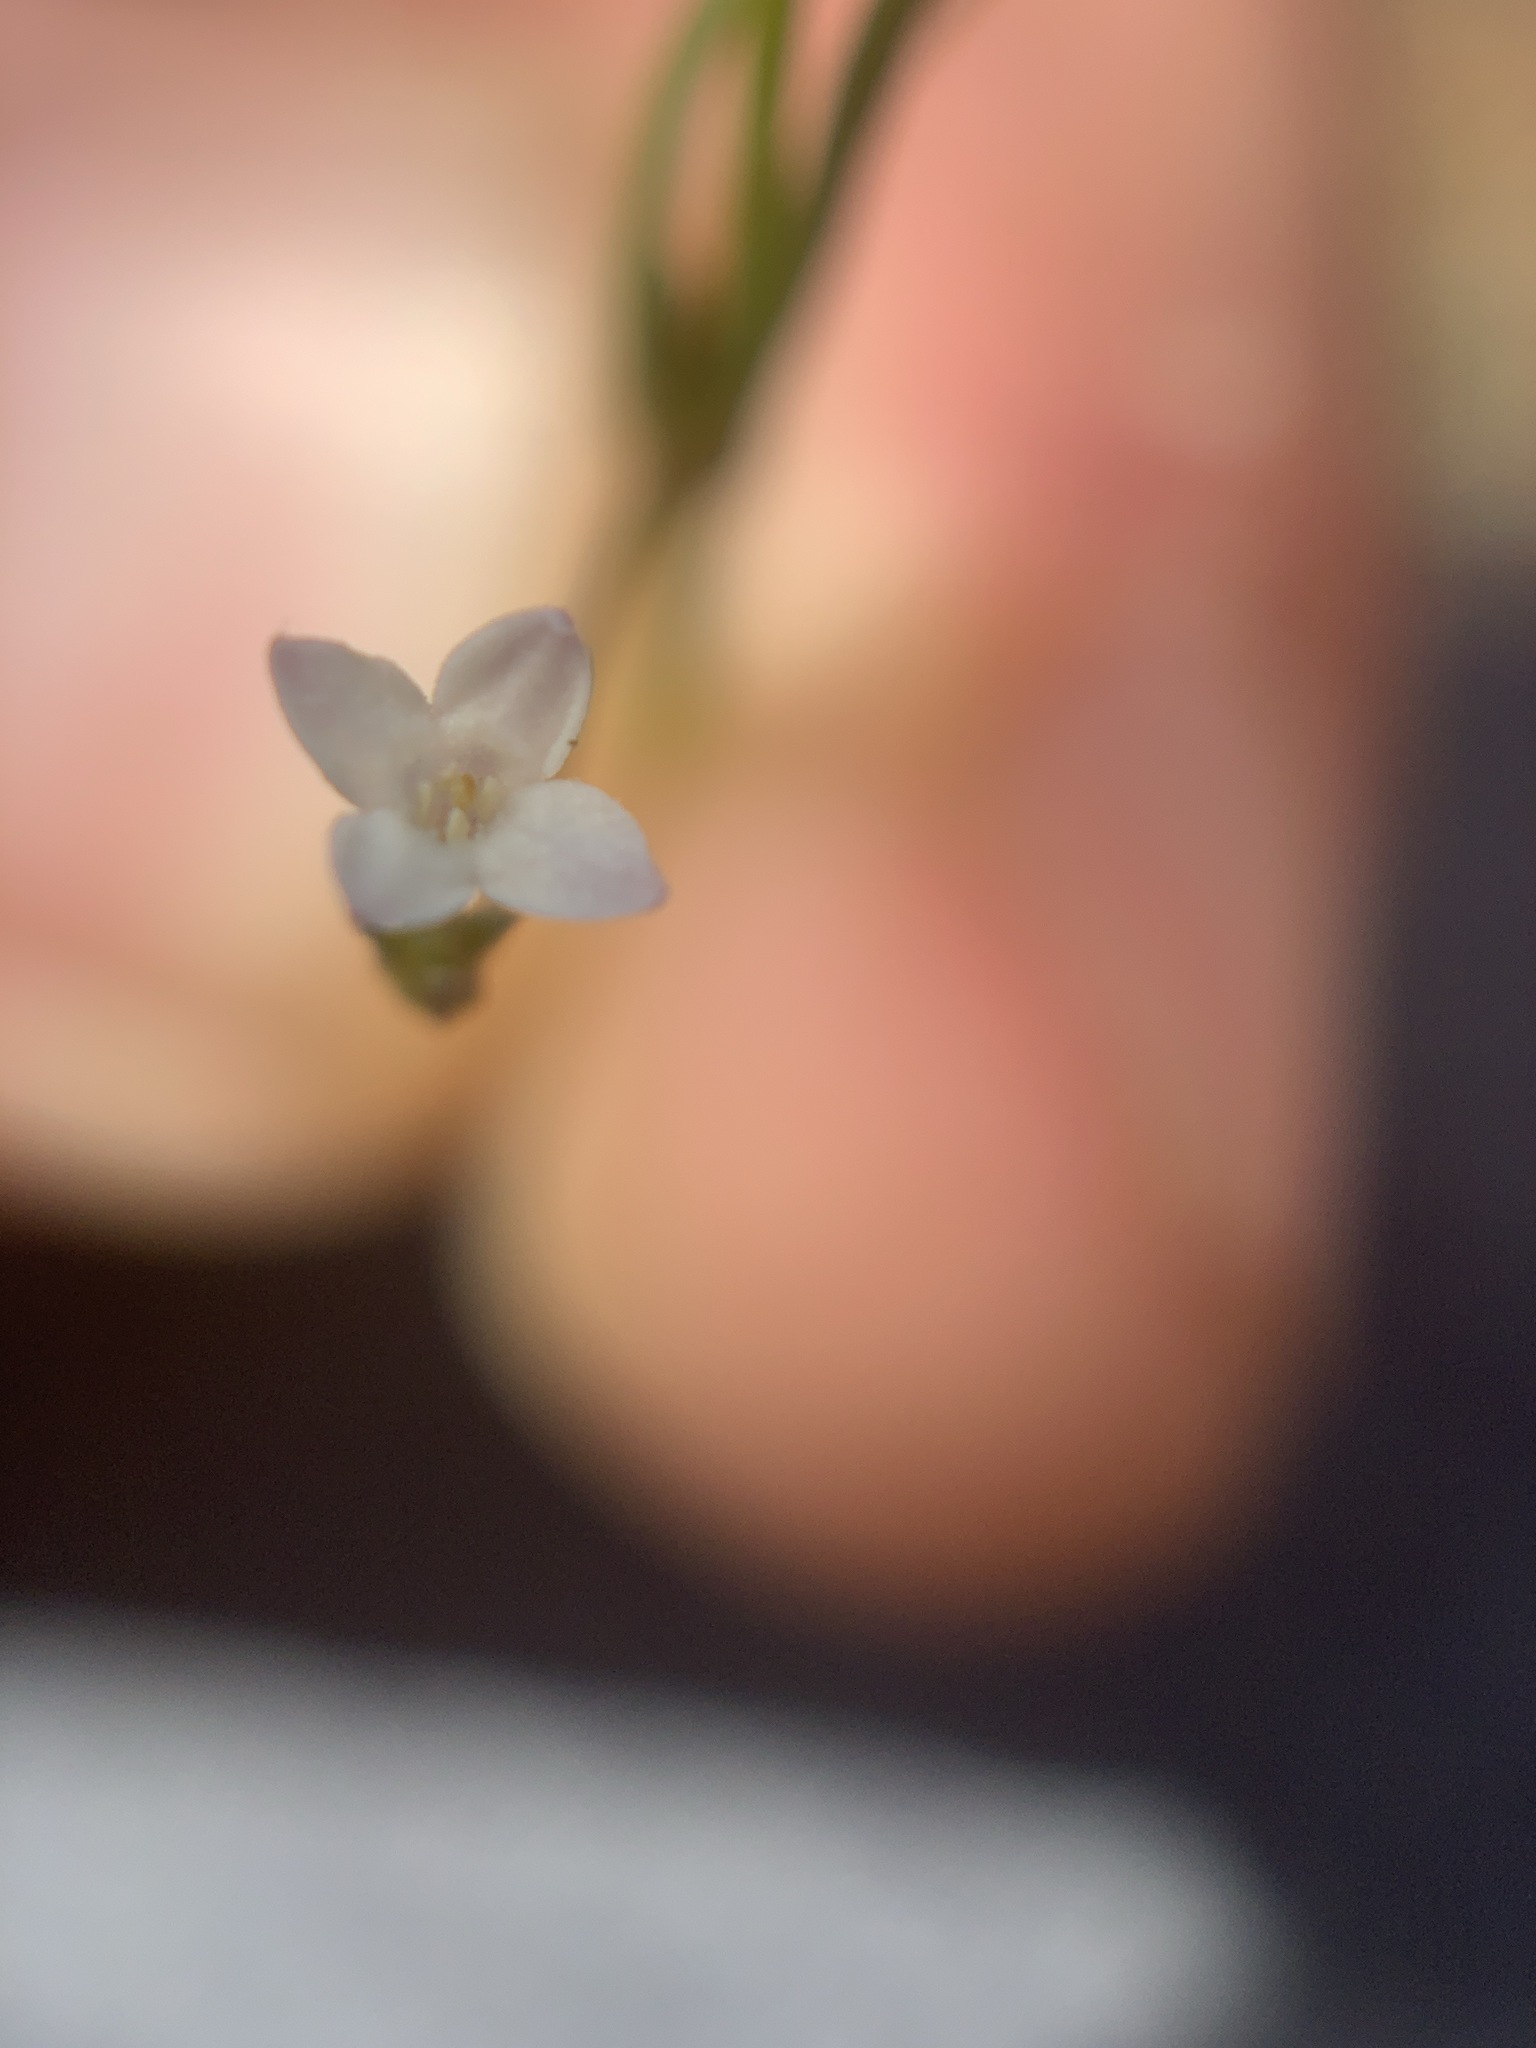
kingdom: Plantae
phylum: Tracheophyta
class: Magnoliopsida
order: Gentianales
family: Rubiaceae
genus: Cordylostigma
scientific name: Cordylostigma virgatum
